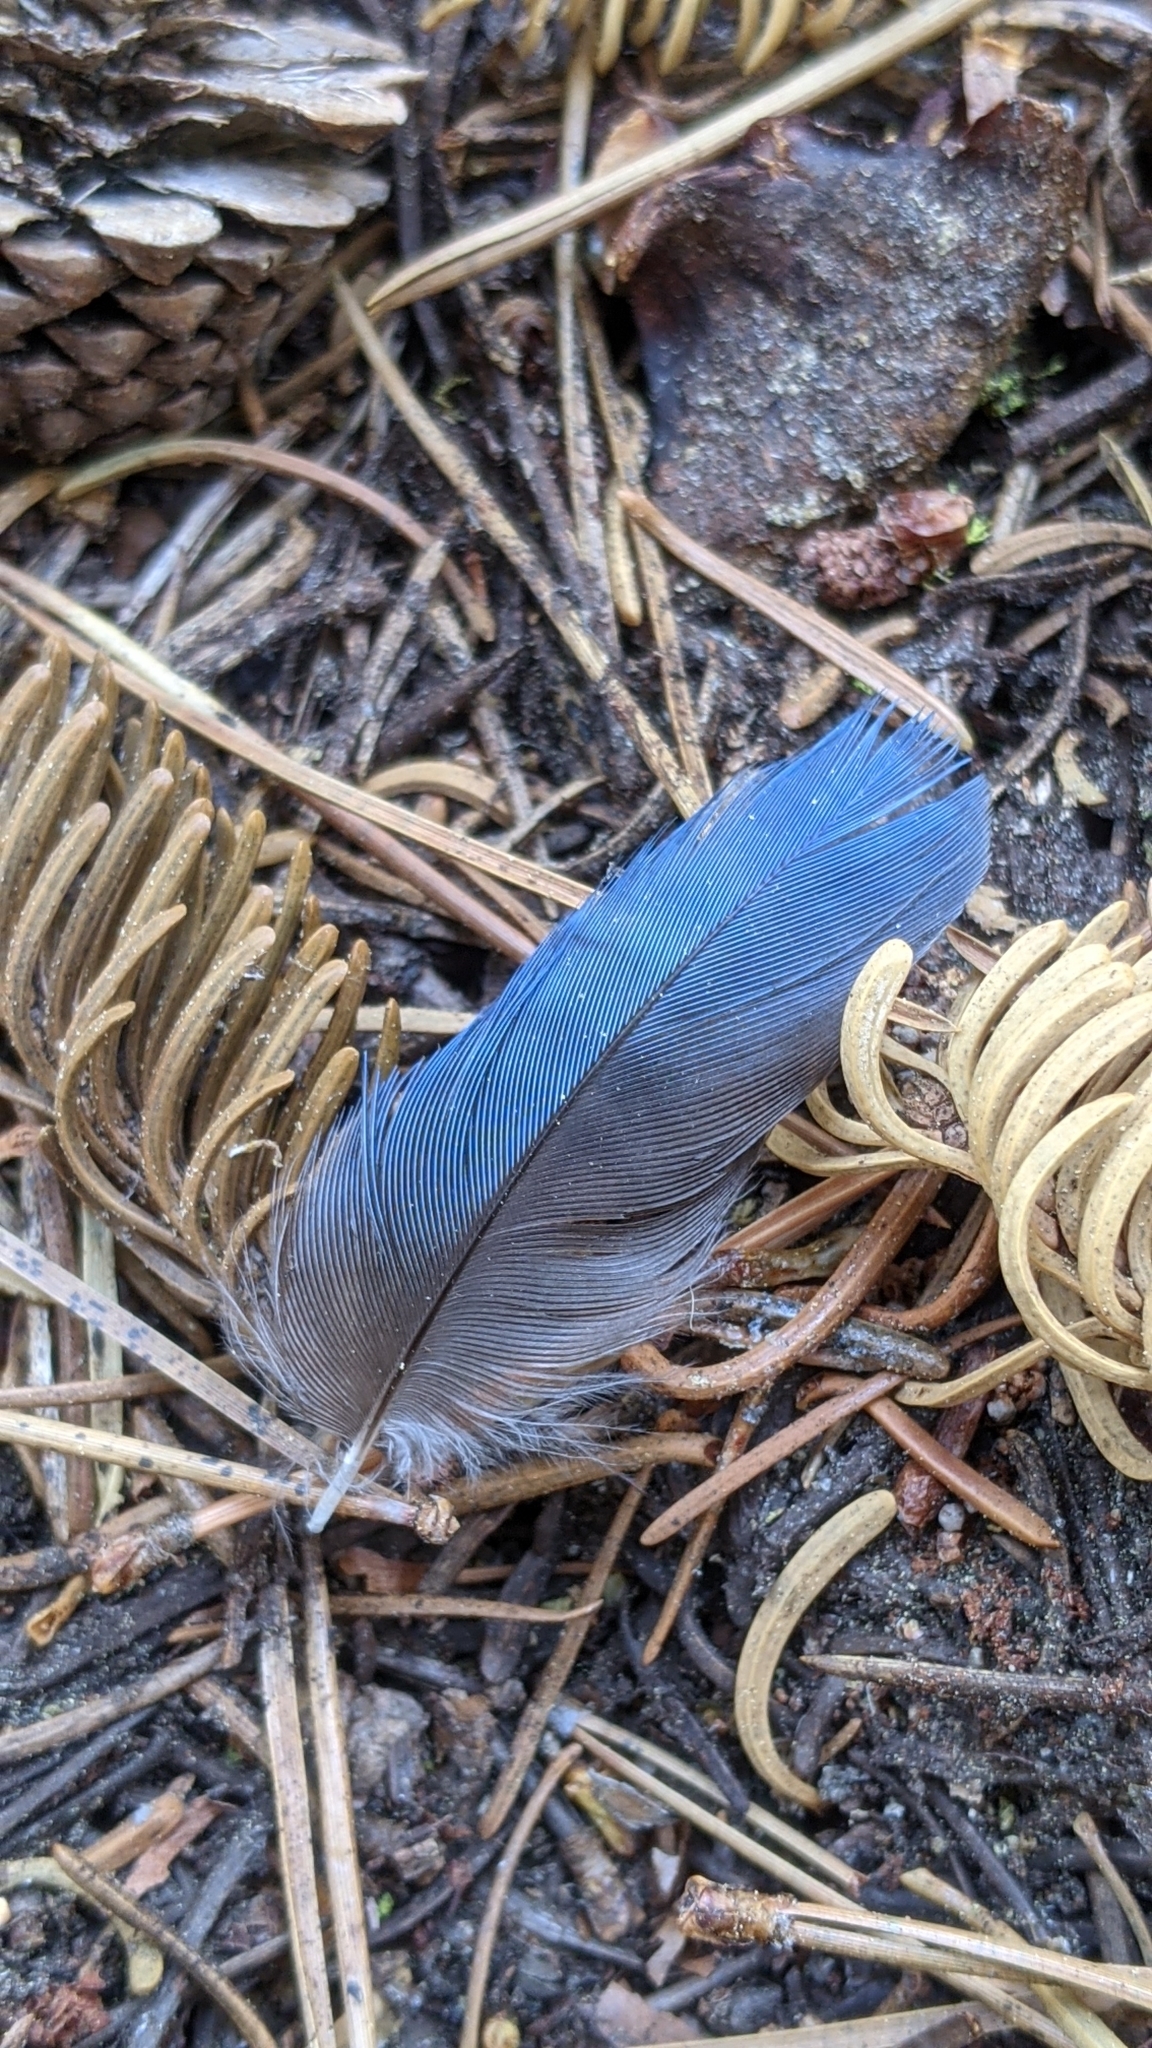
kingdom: Animalia
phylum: Chordata
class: Aves
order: Passeriformes
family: Corvidae
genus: Cyanocitta
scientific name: Cyanocitta stelleri
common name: Steller's jay
